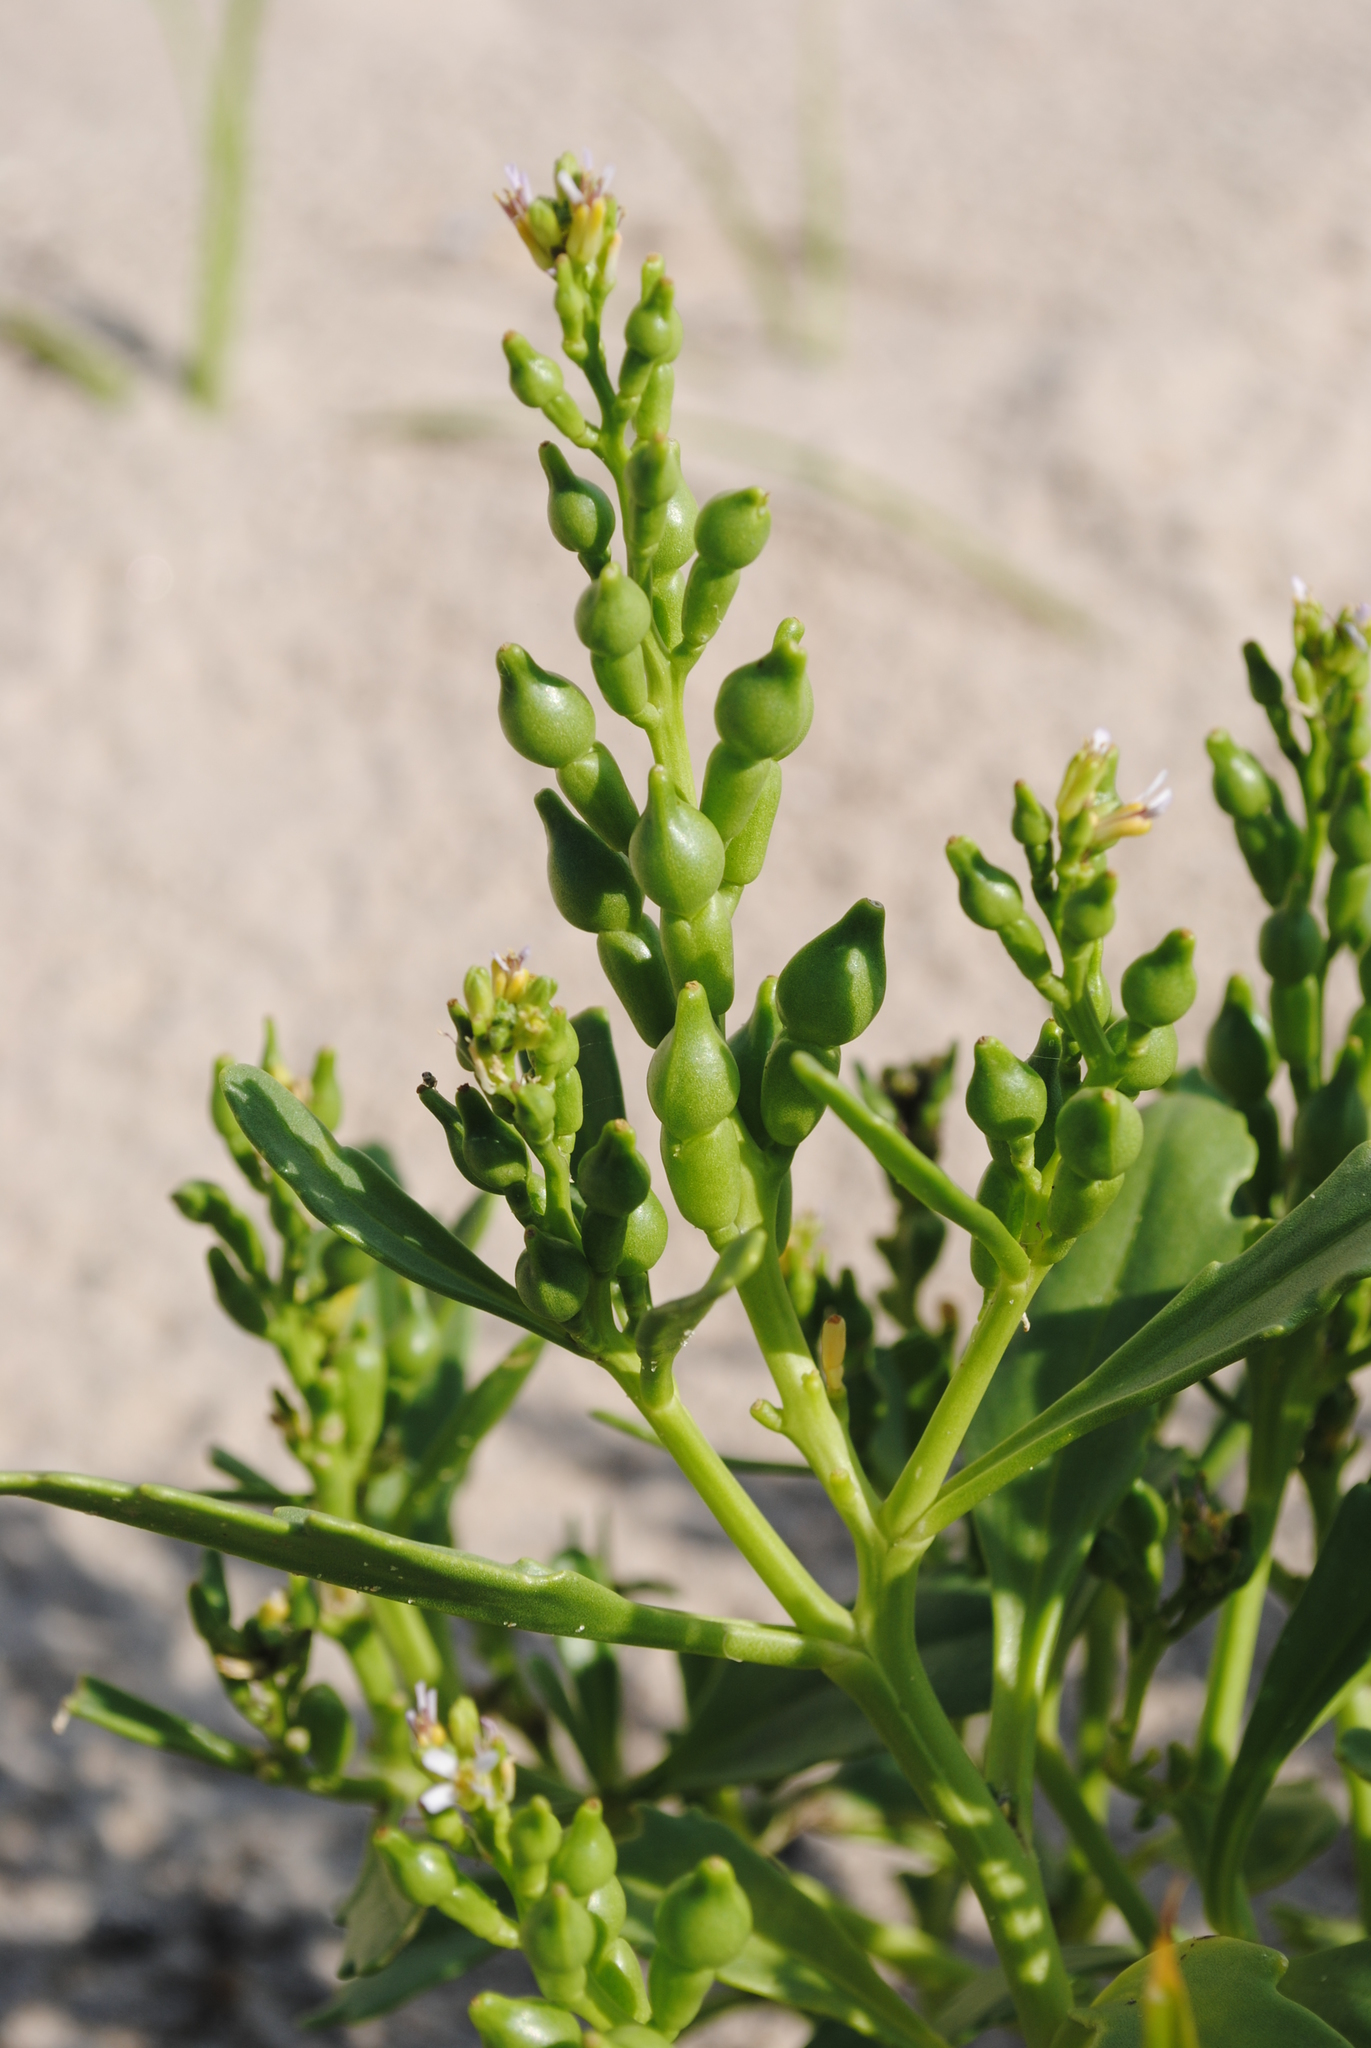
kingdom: Plantae
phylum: Tracheophyta
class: Magnoliopsida
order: Brassicales
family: Brassicaceae
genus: Cakile
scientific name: Cakile edentula
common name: American sea rocket
